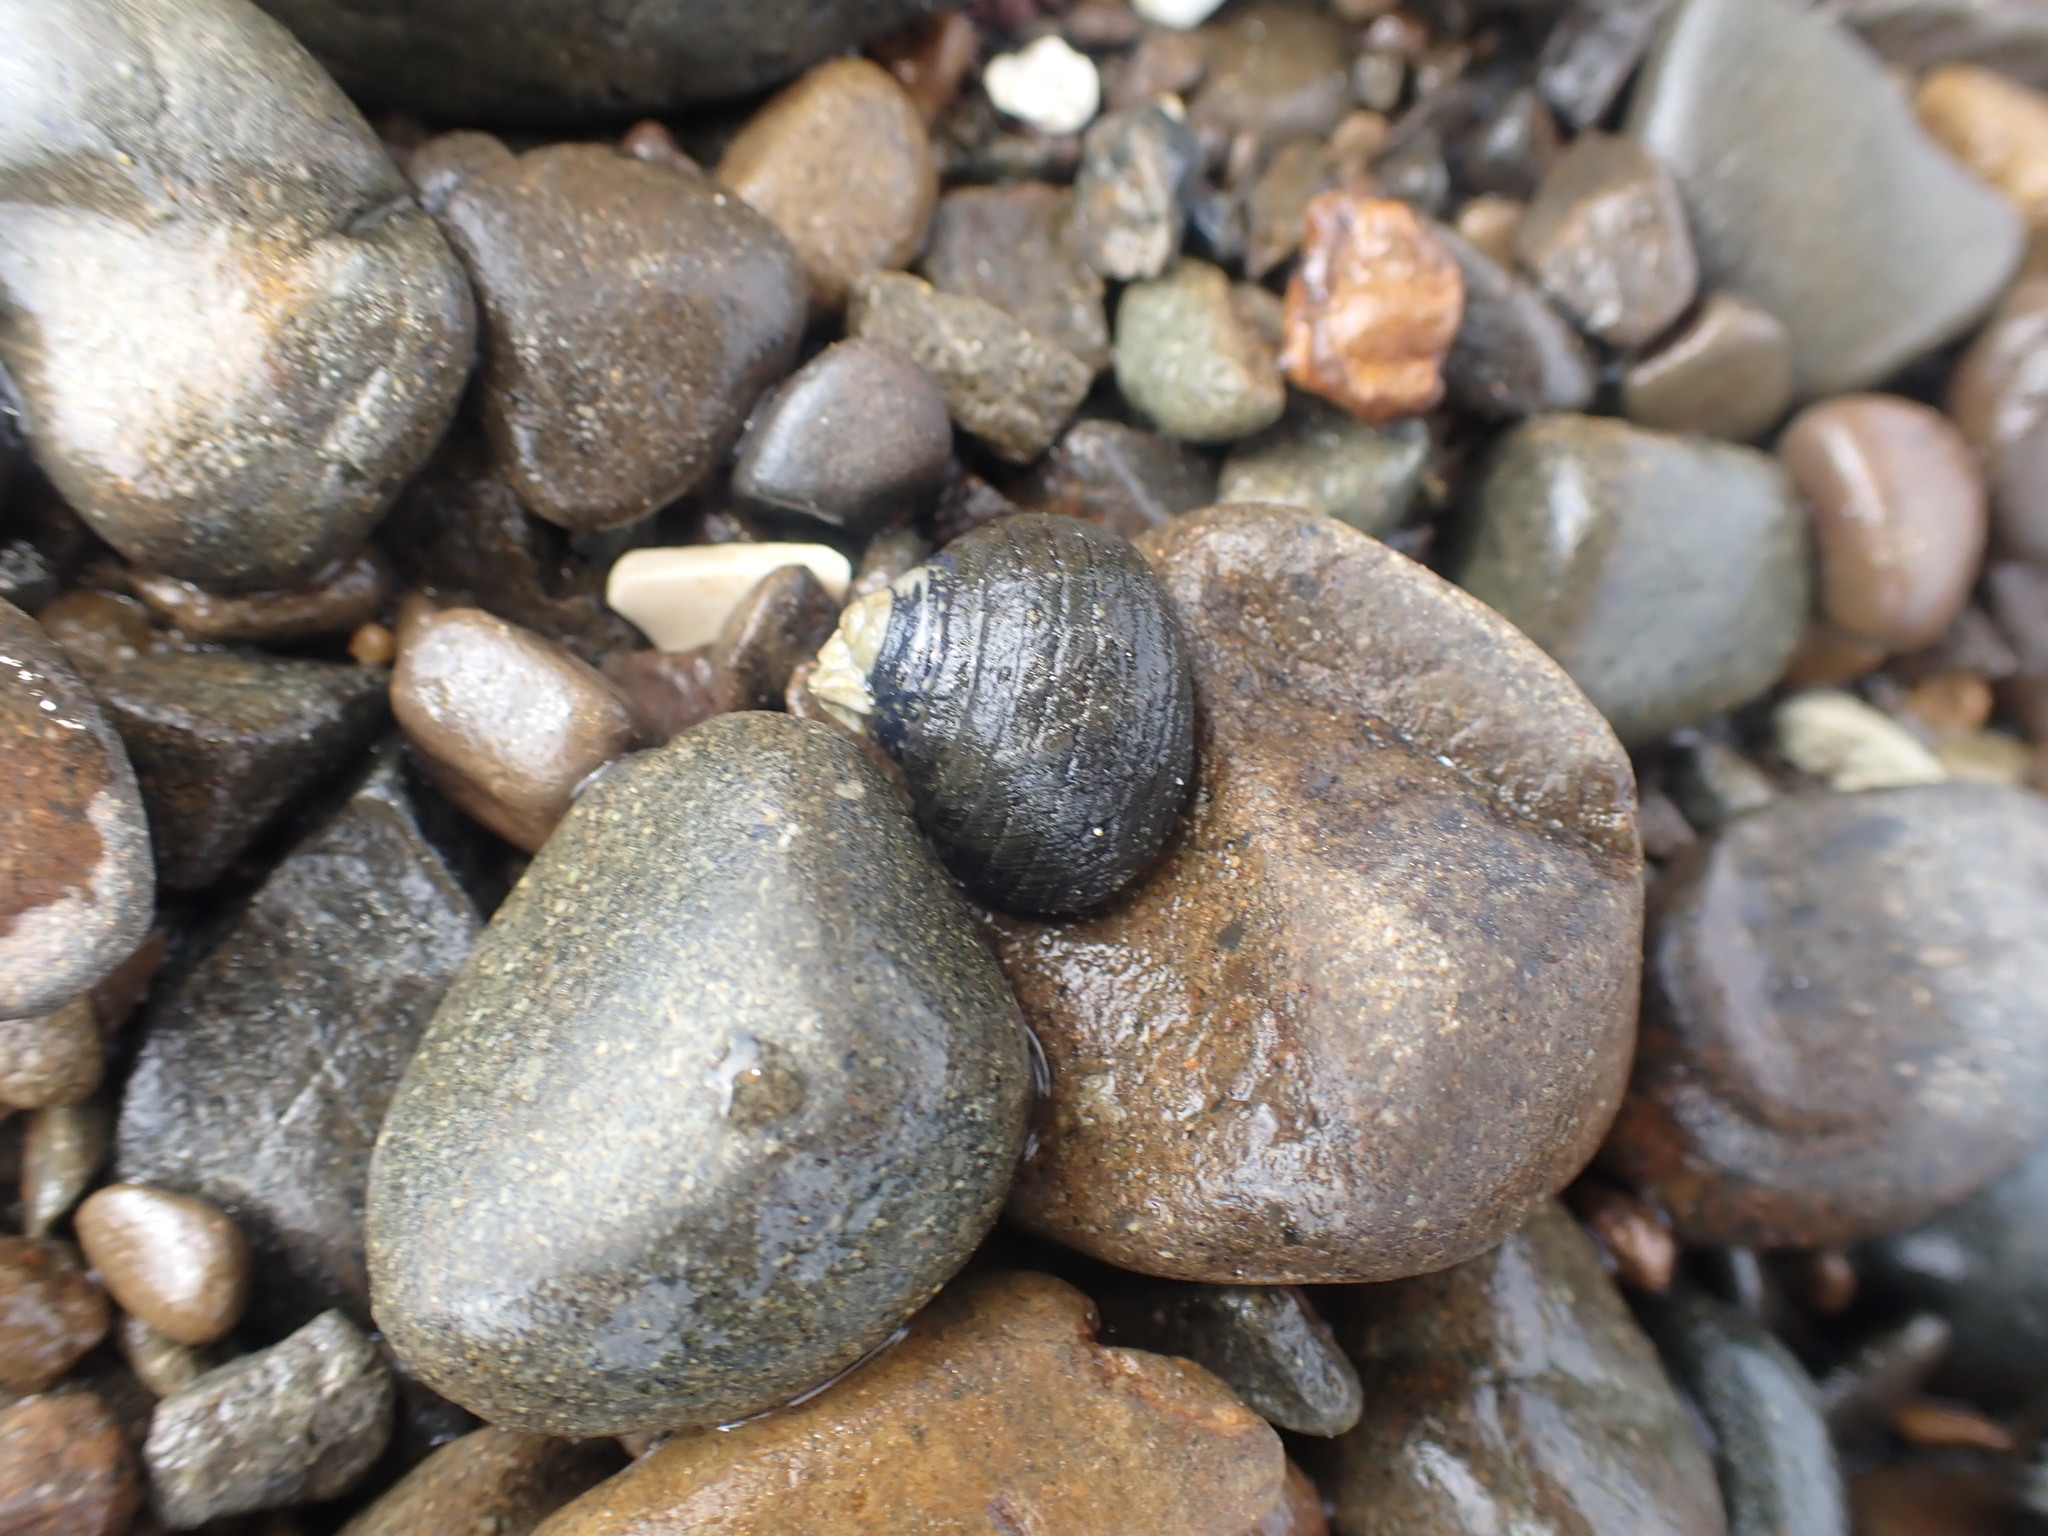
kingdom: Animalia
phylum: Mollusca
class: Gastropoda
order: Trochida
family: Trochidae
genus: Diloma
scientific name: Diloma aethiops
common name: Scorched monodont
